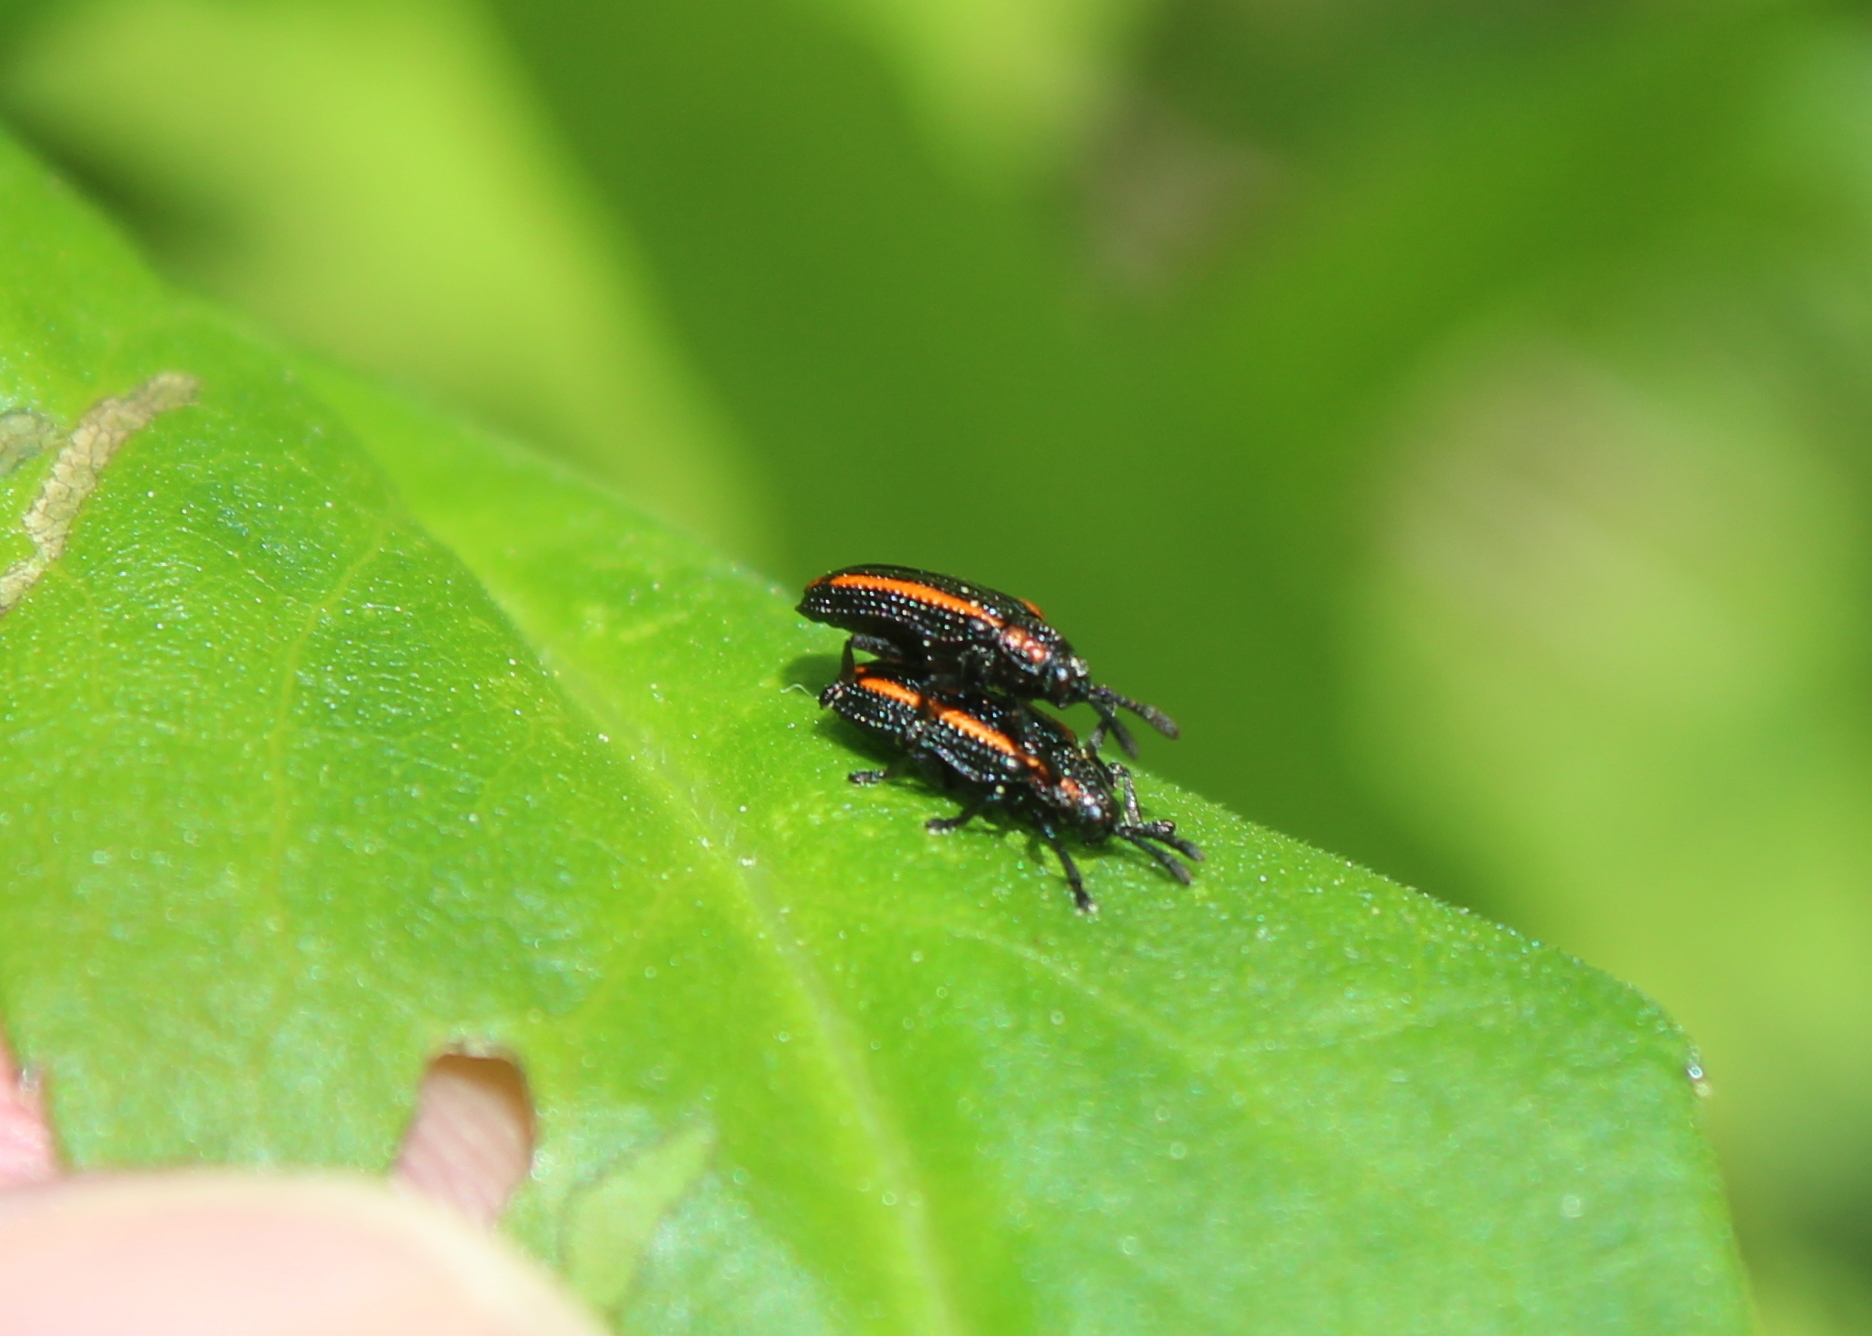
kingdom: Animalia
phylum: Arthropoda
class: Insecta
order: Coleoptera
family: Chrysomelidae
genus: Microrhopala
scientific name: Microrhopala xerene
